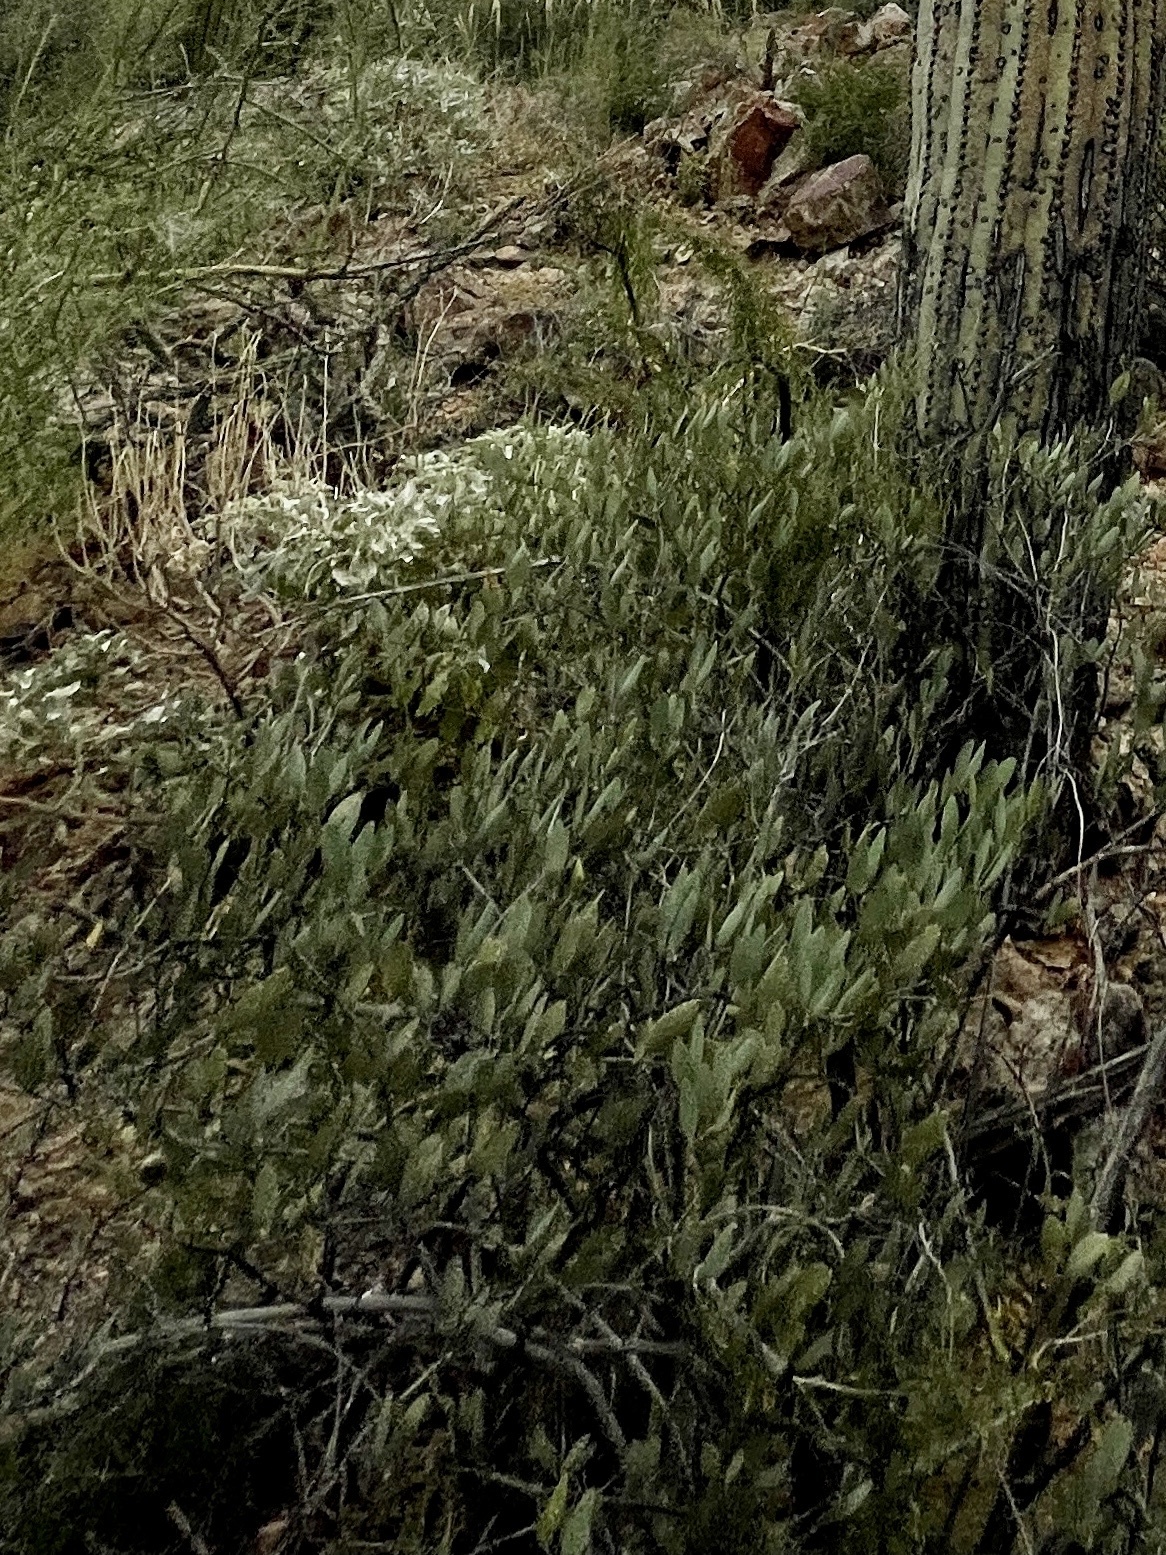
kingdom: Plantae
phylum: Tracheophyta
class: Magnoliopsida
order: Caryophyllales
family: Simmondsiaceae
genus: Simmondsia
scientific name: Simmondsia chinensis
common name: Jojoba
